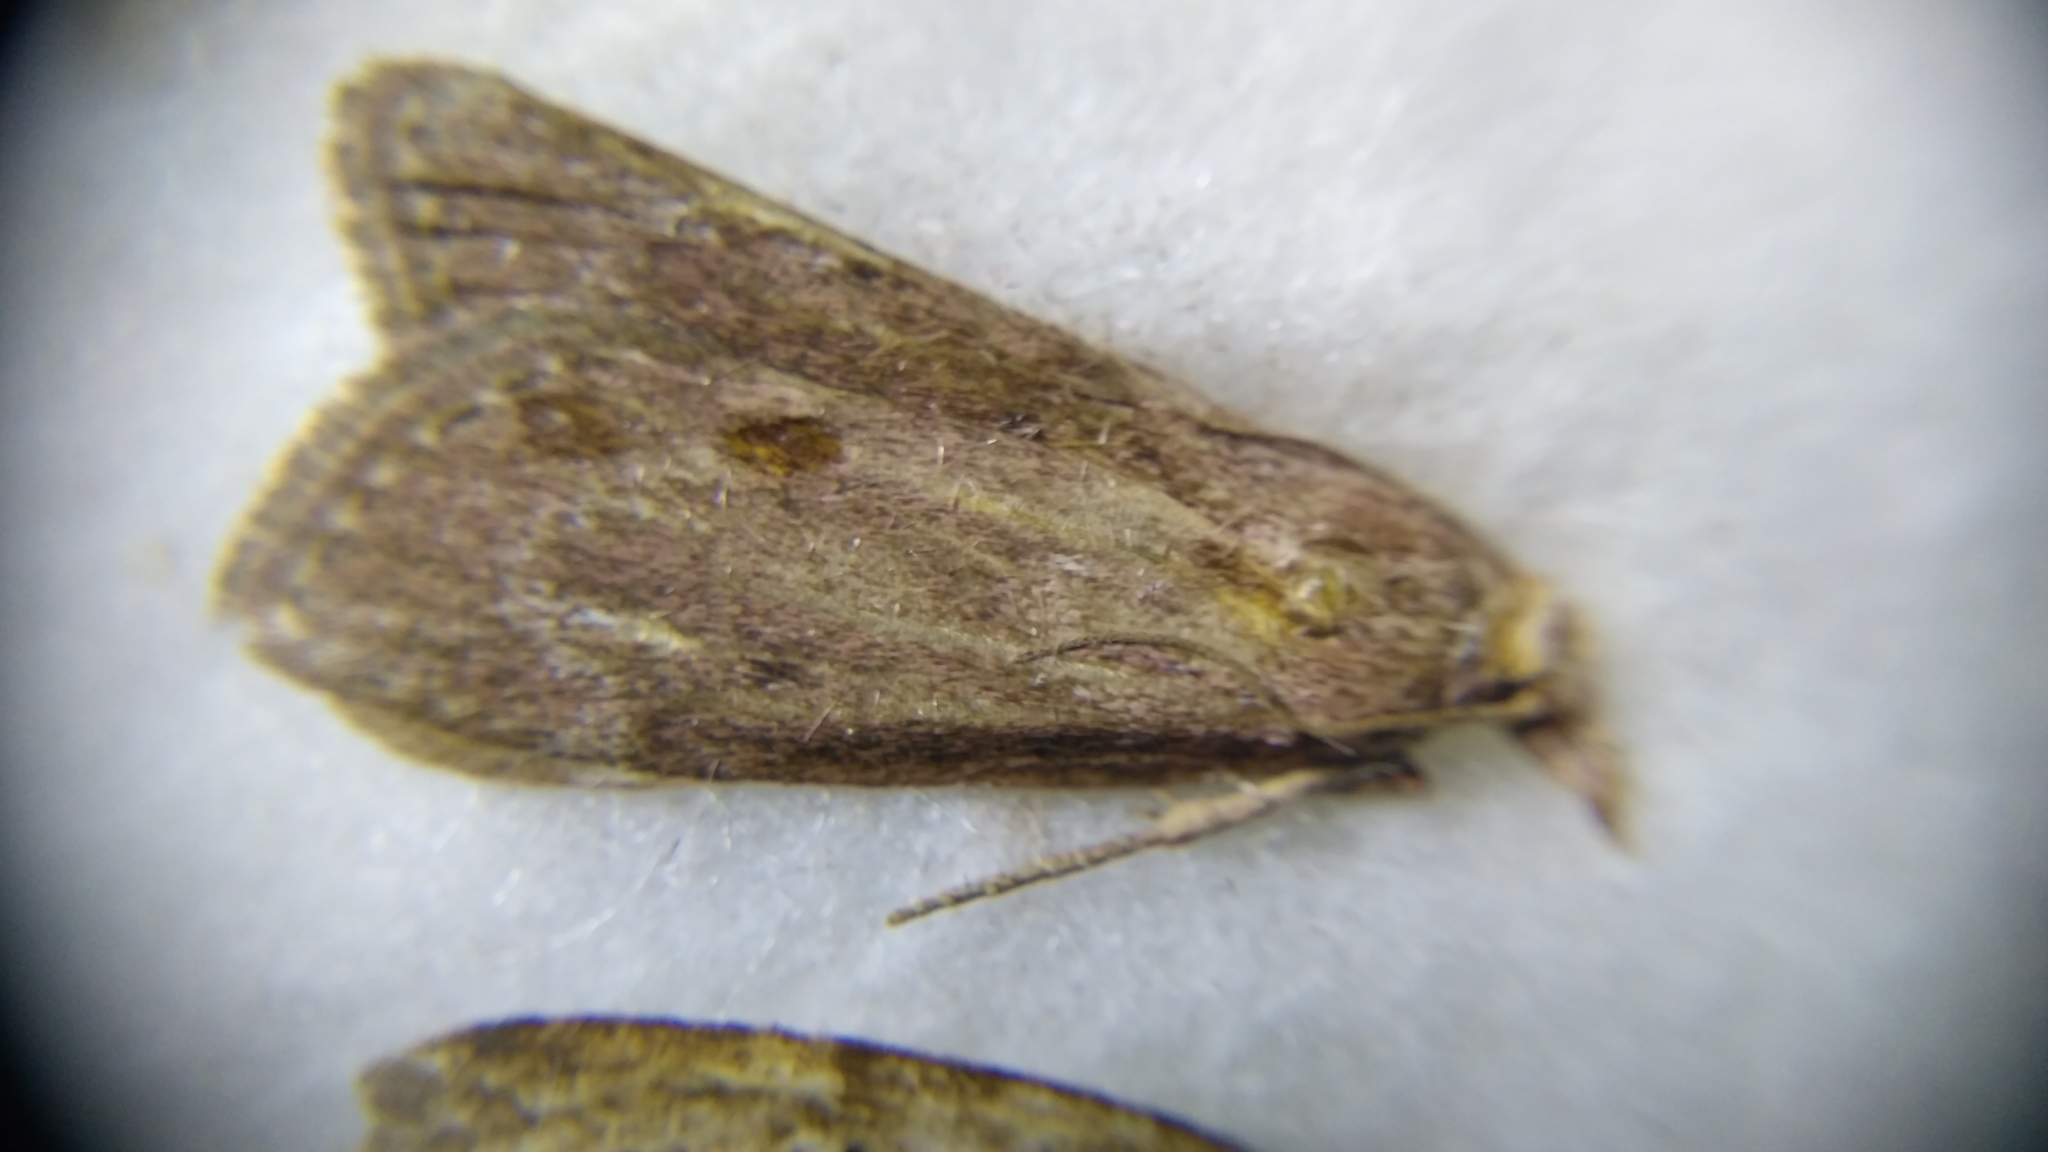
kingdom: Animalia
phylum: Arthropoda
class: Insecta
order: Lepidoptera
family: Pyralidae
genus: Aphomia
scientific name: Aphomia sociella
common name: Bee moth
